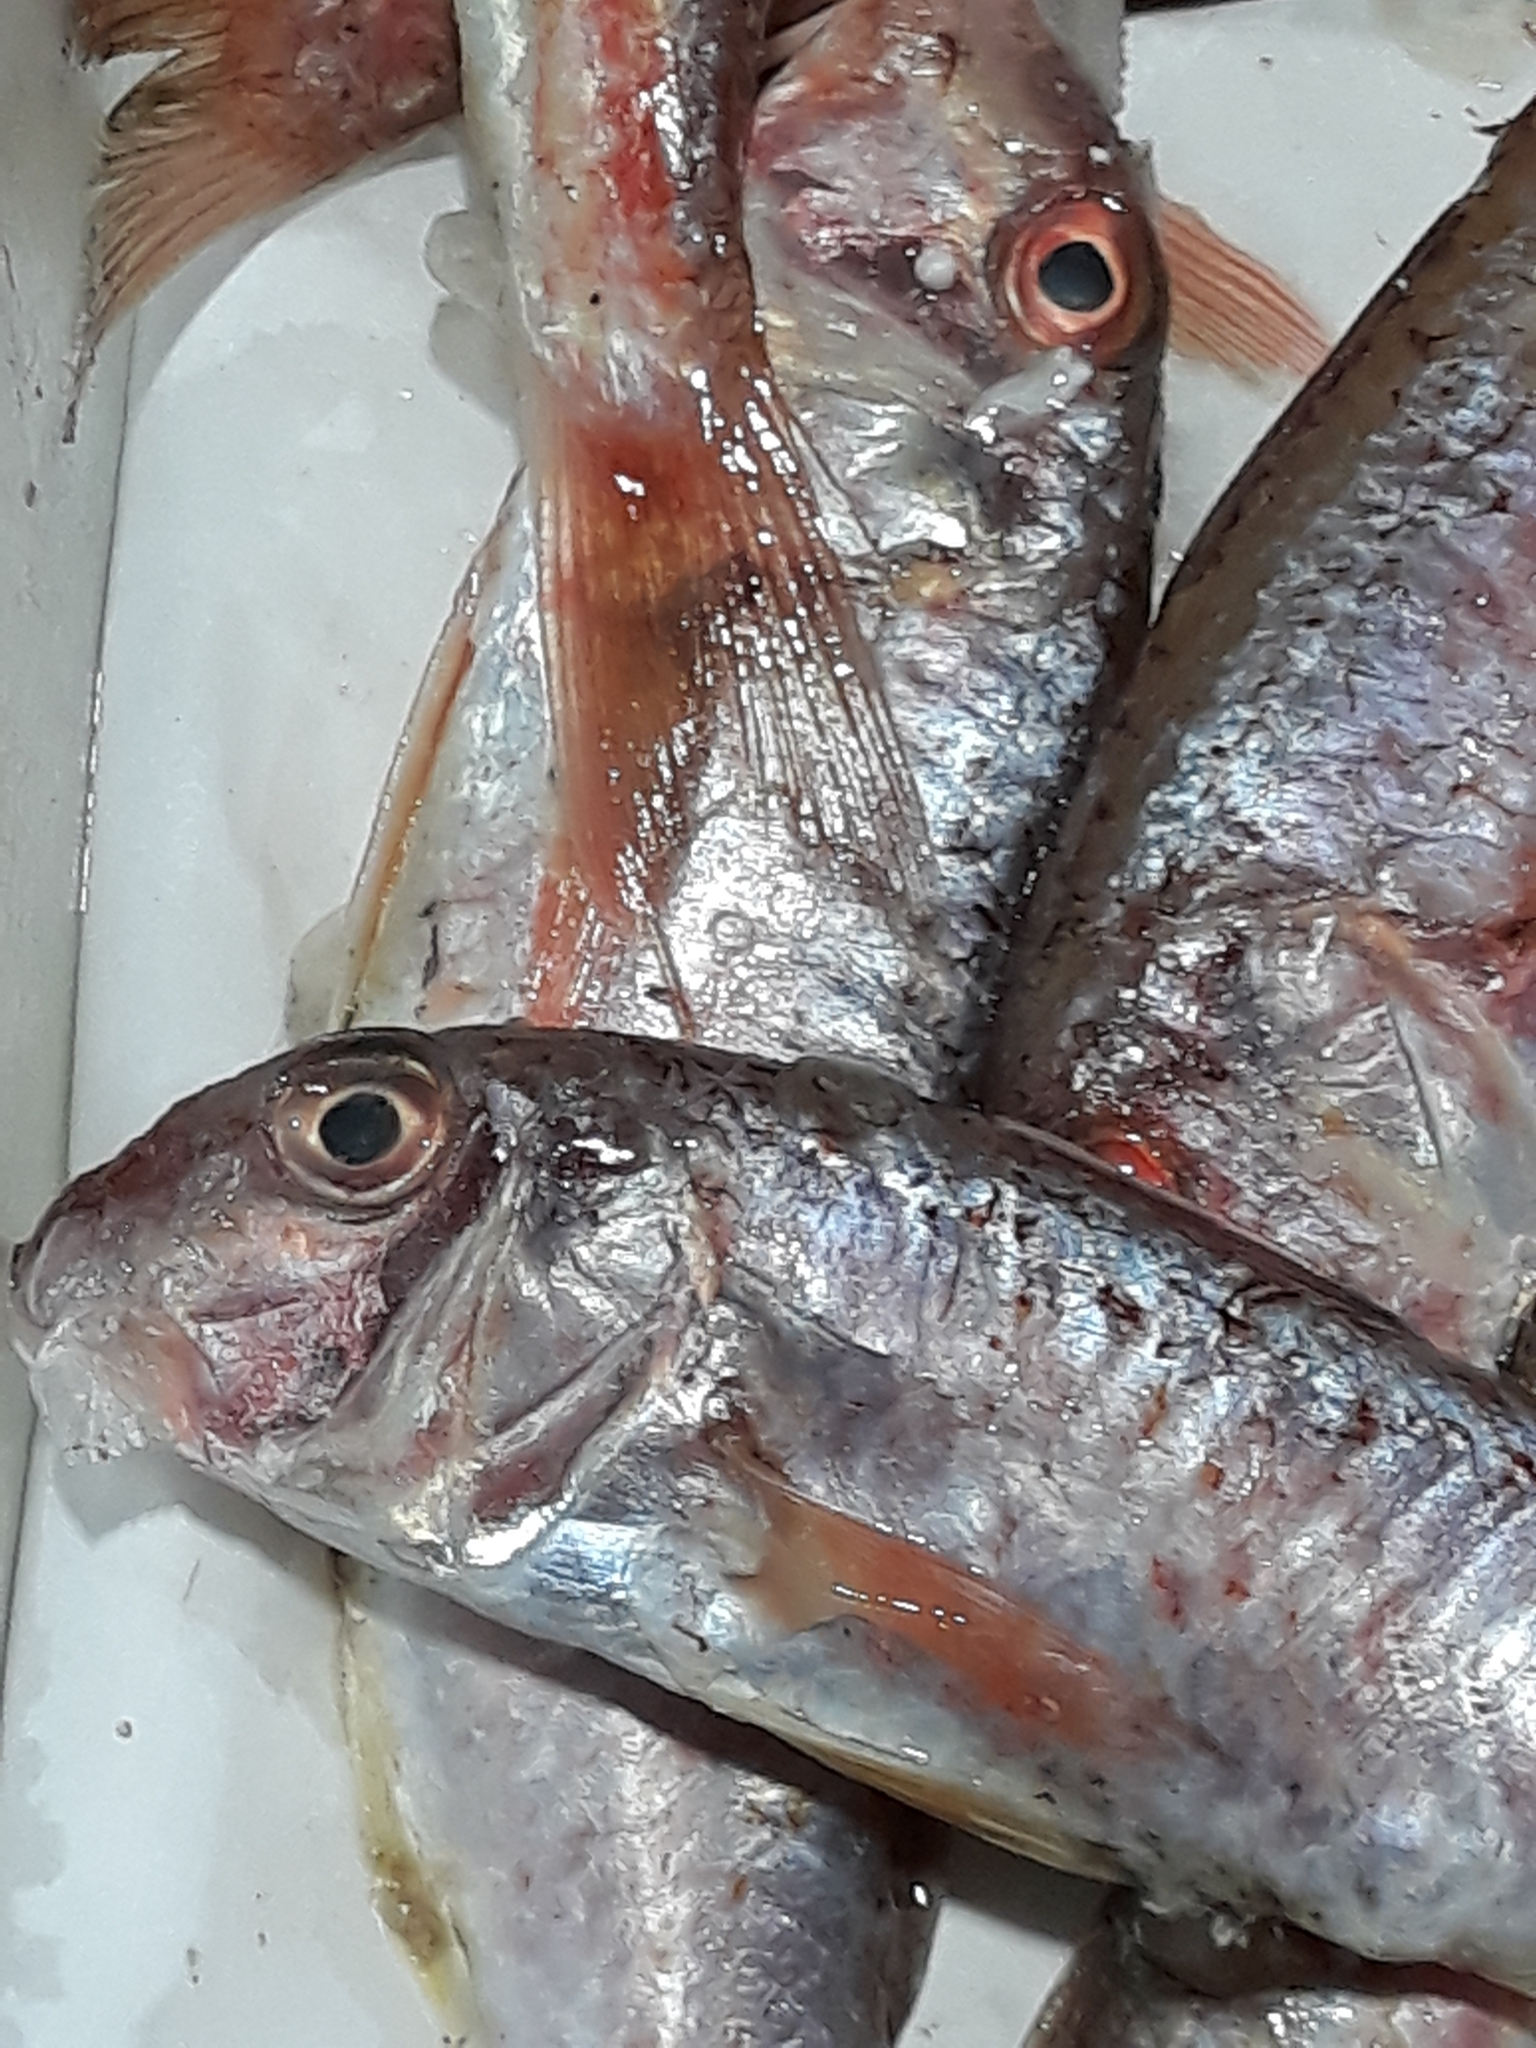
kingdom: Animalia
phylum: Chordata
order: Perciformes
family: Mullidae
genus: Mullus
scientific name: Mullus barbatus
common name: Blunt-snouted mullet
